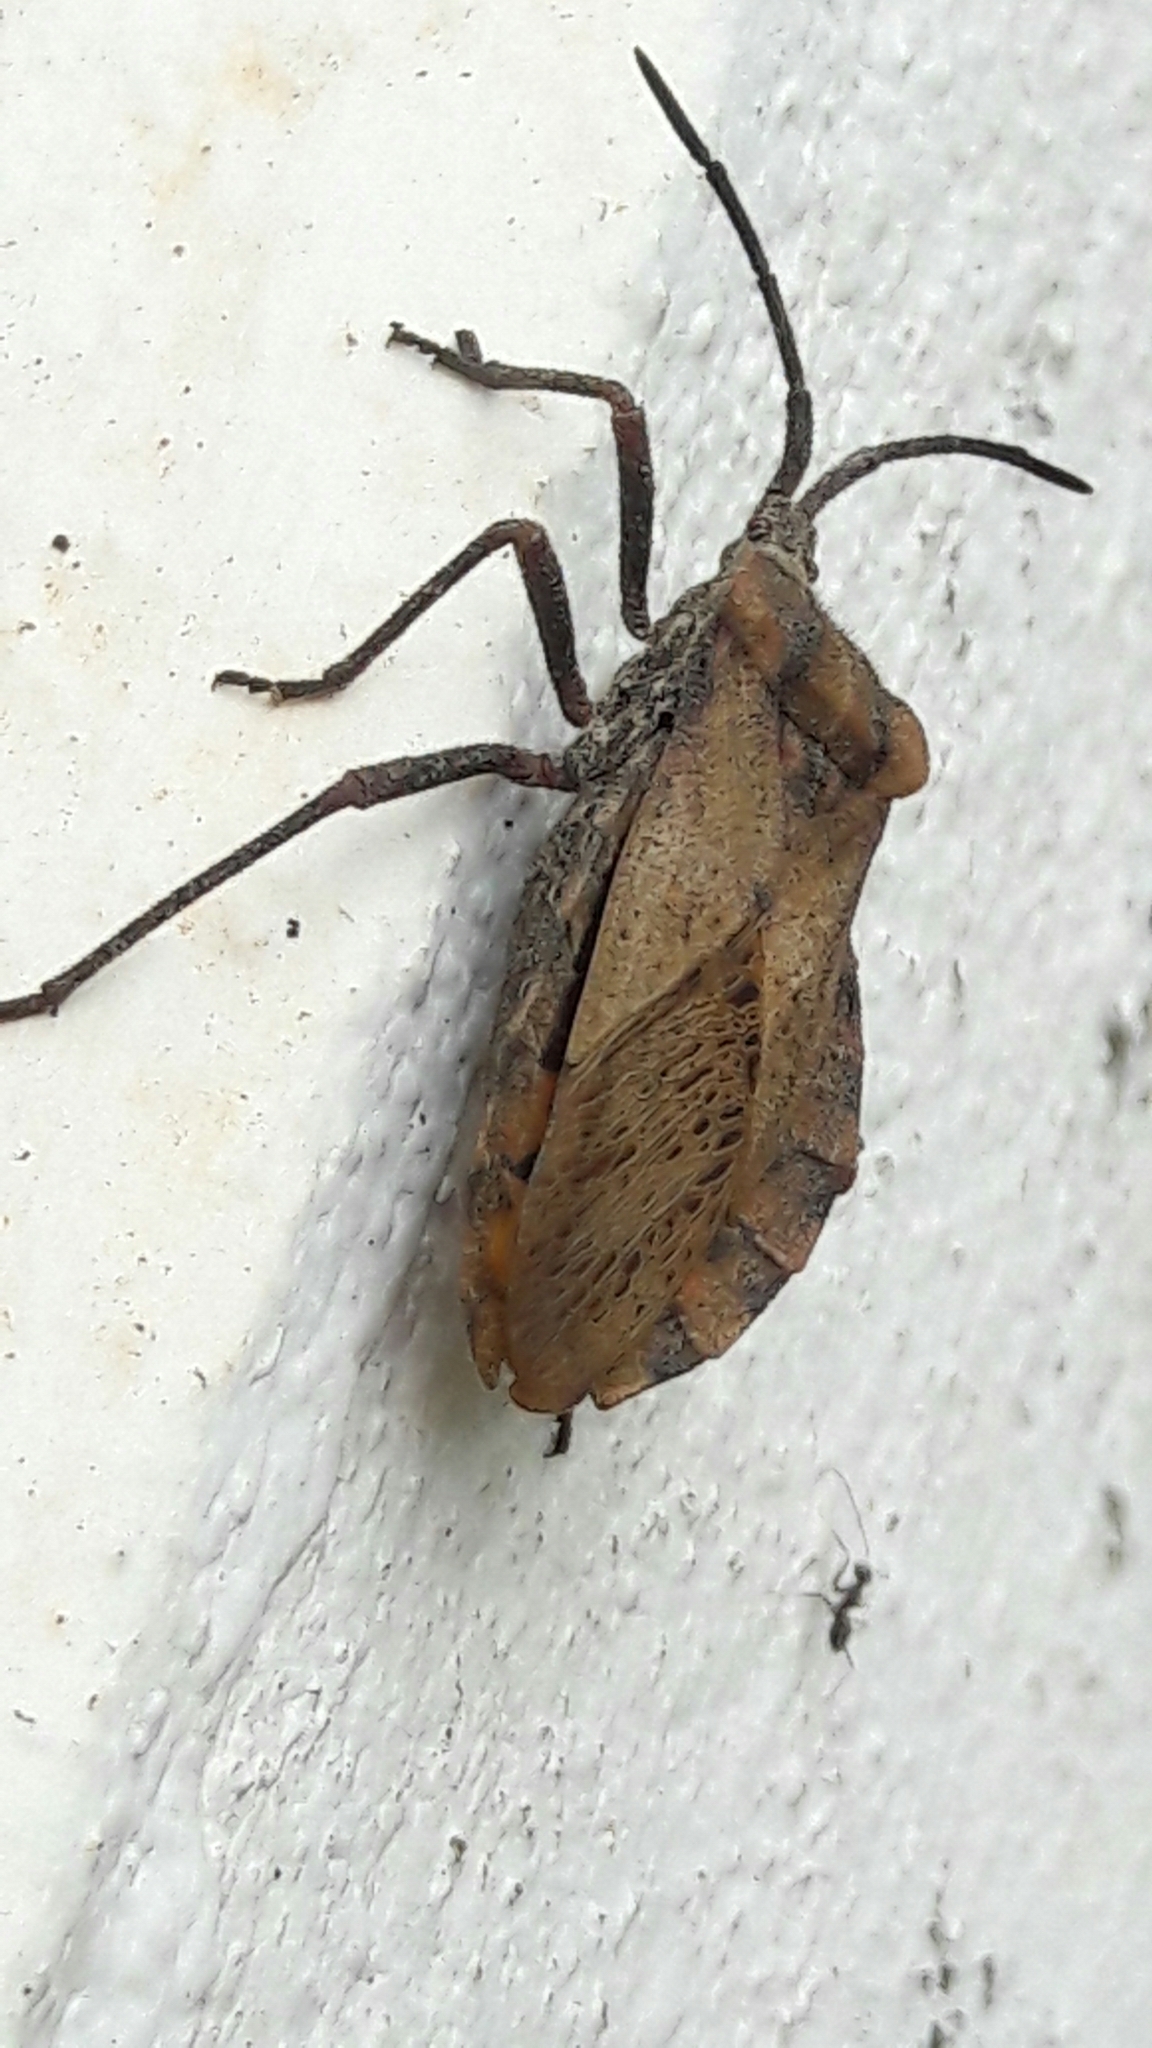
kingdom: Animalia
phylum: Arthropoda
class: Insecta
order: Hemiptera
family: Coreidae
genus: Spartocera
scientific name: Spartocera fusca
